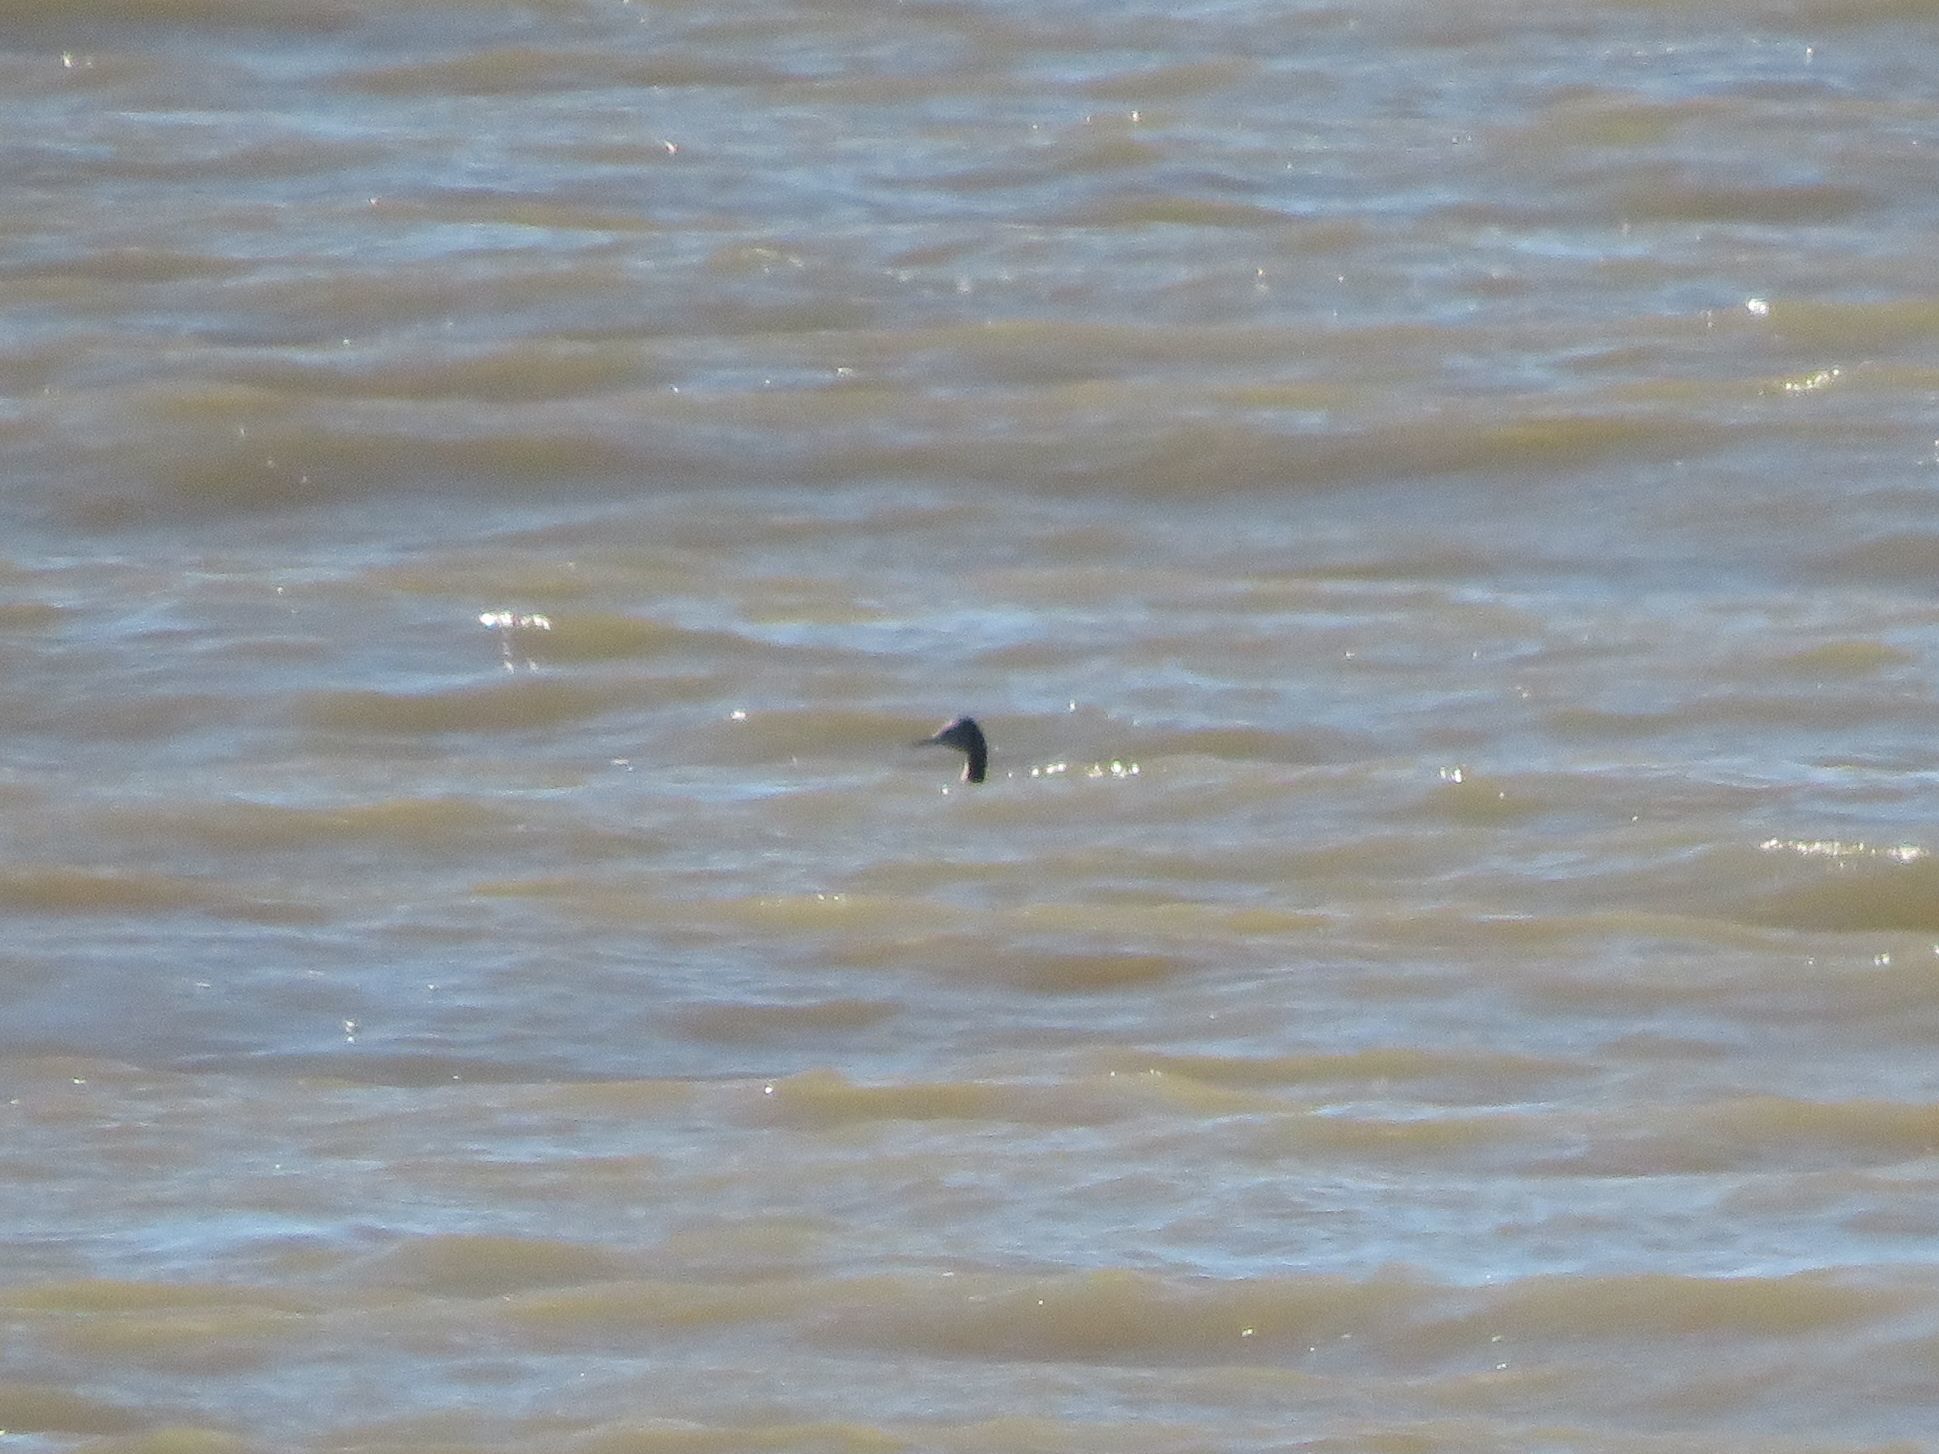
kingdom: Animalia
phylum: Chordata
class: Aves
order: Podicipediformes
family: Podicipedidae
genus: Podiceps
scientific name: Podiceps major
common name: Great grebe
